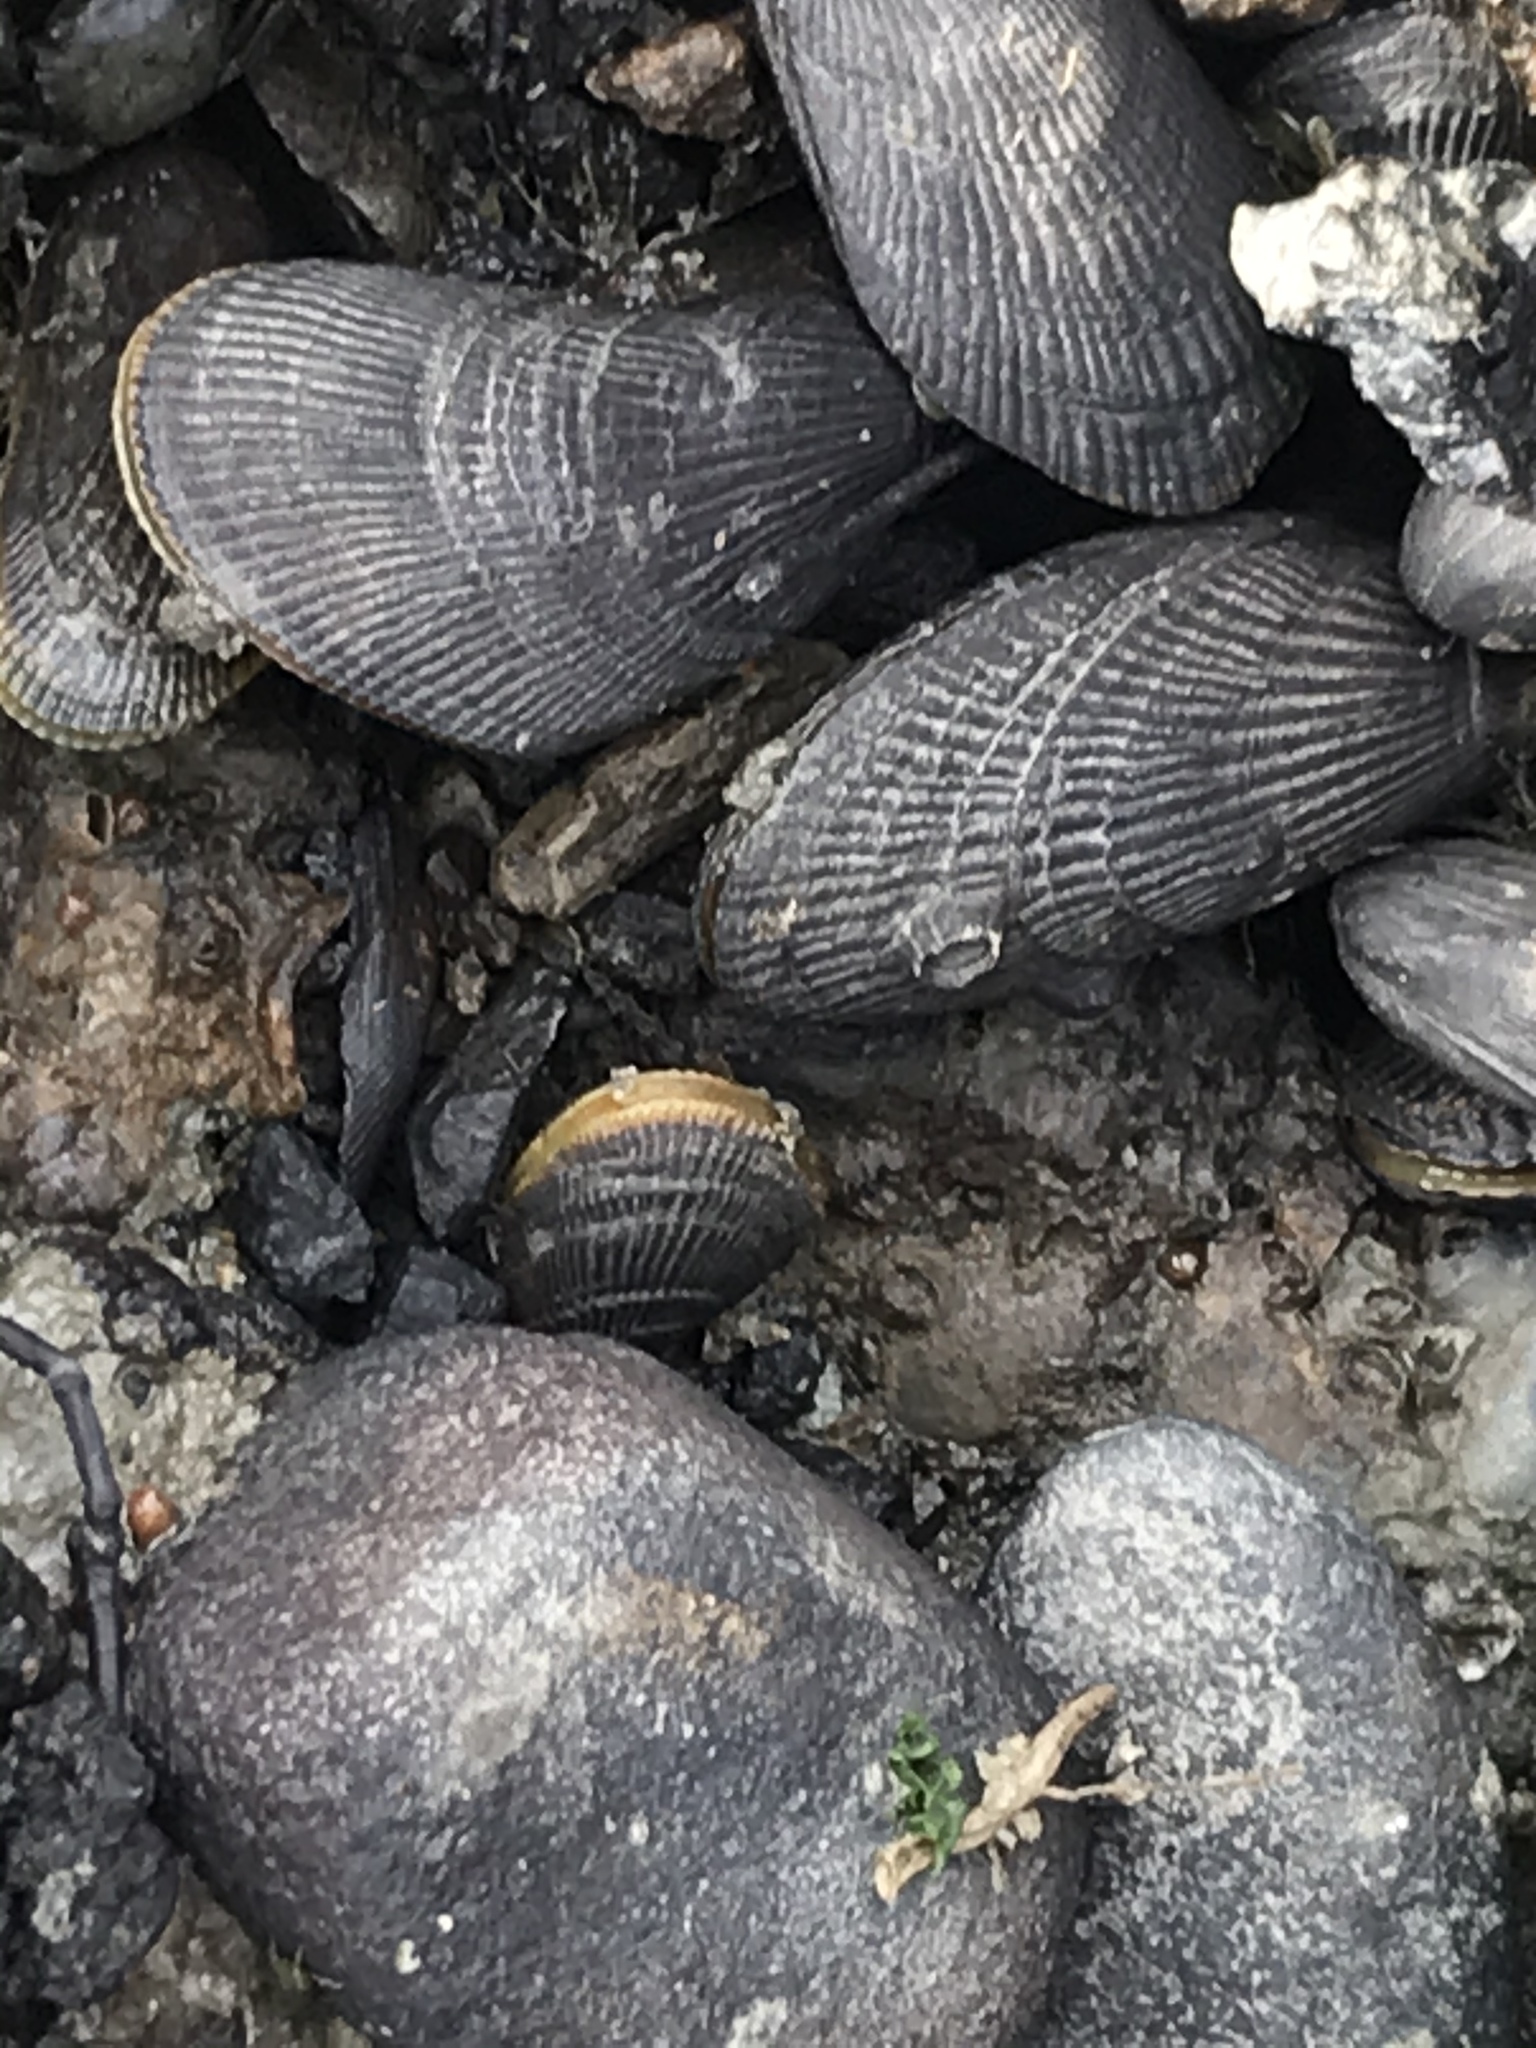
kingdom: Animalia
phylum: Mollusca
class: Bivalvia
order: Mytilida
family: Mytilidae
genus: Geukensia
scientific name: Geukensia demissa
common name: Ribbed mussel
